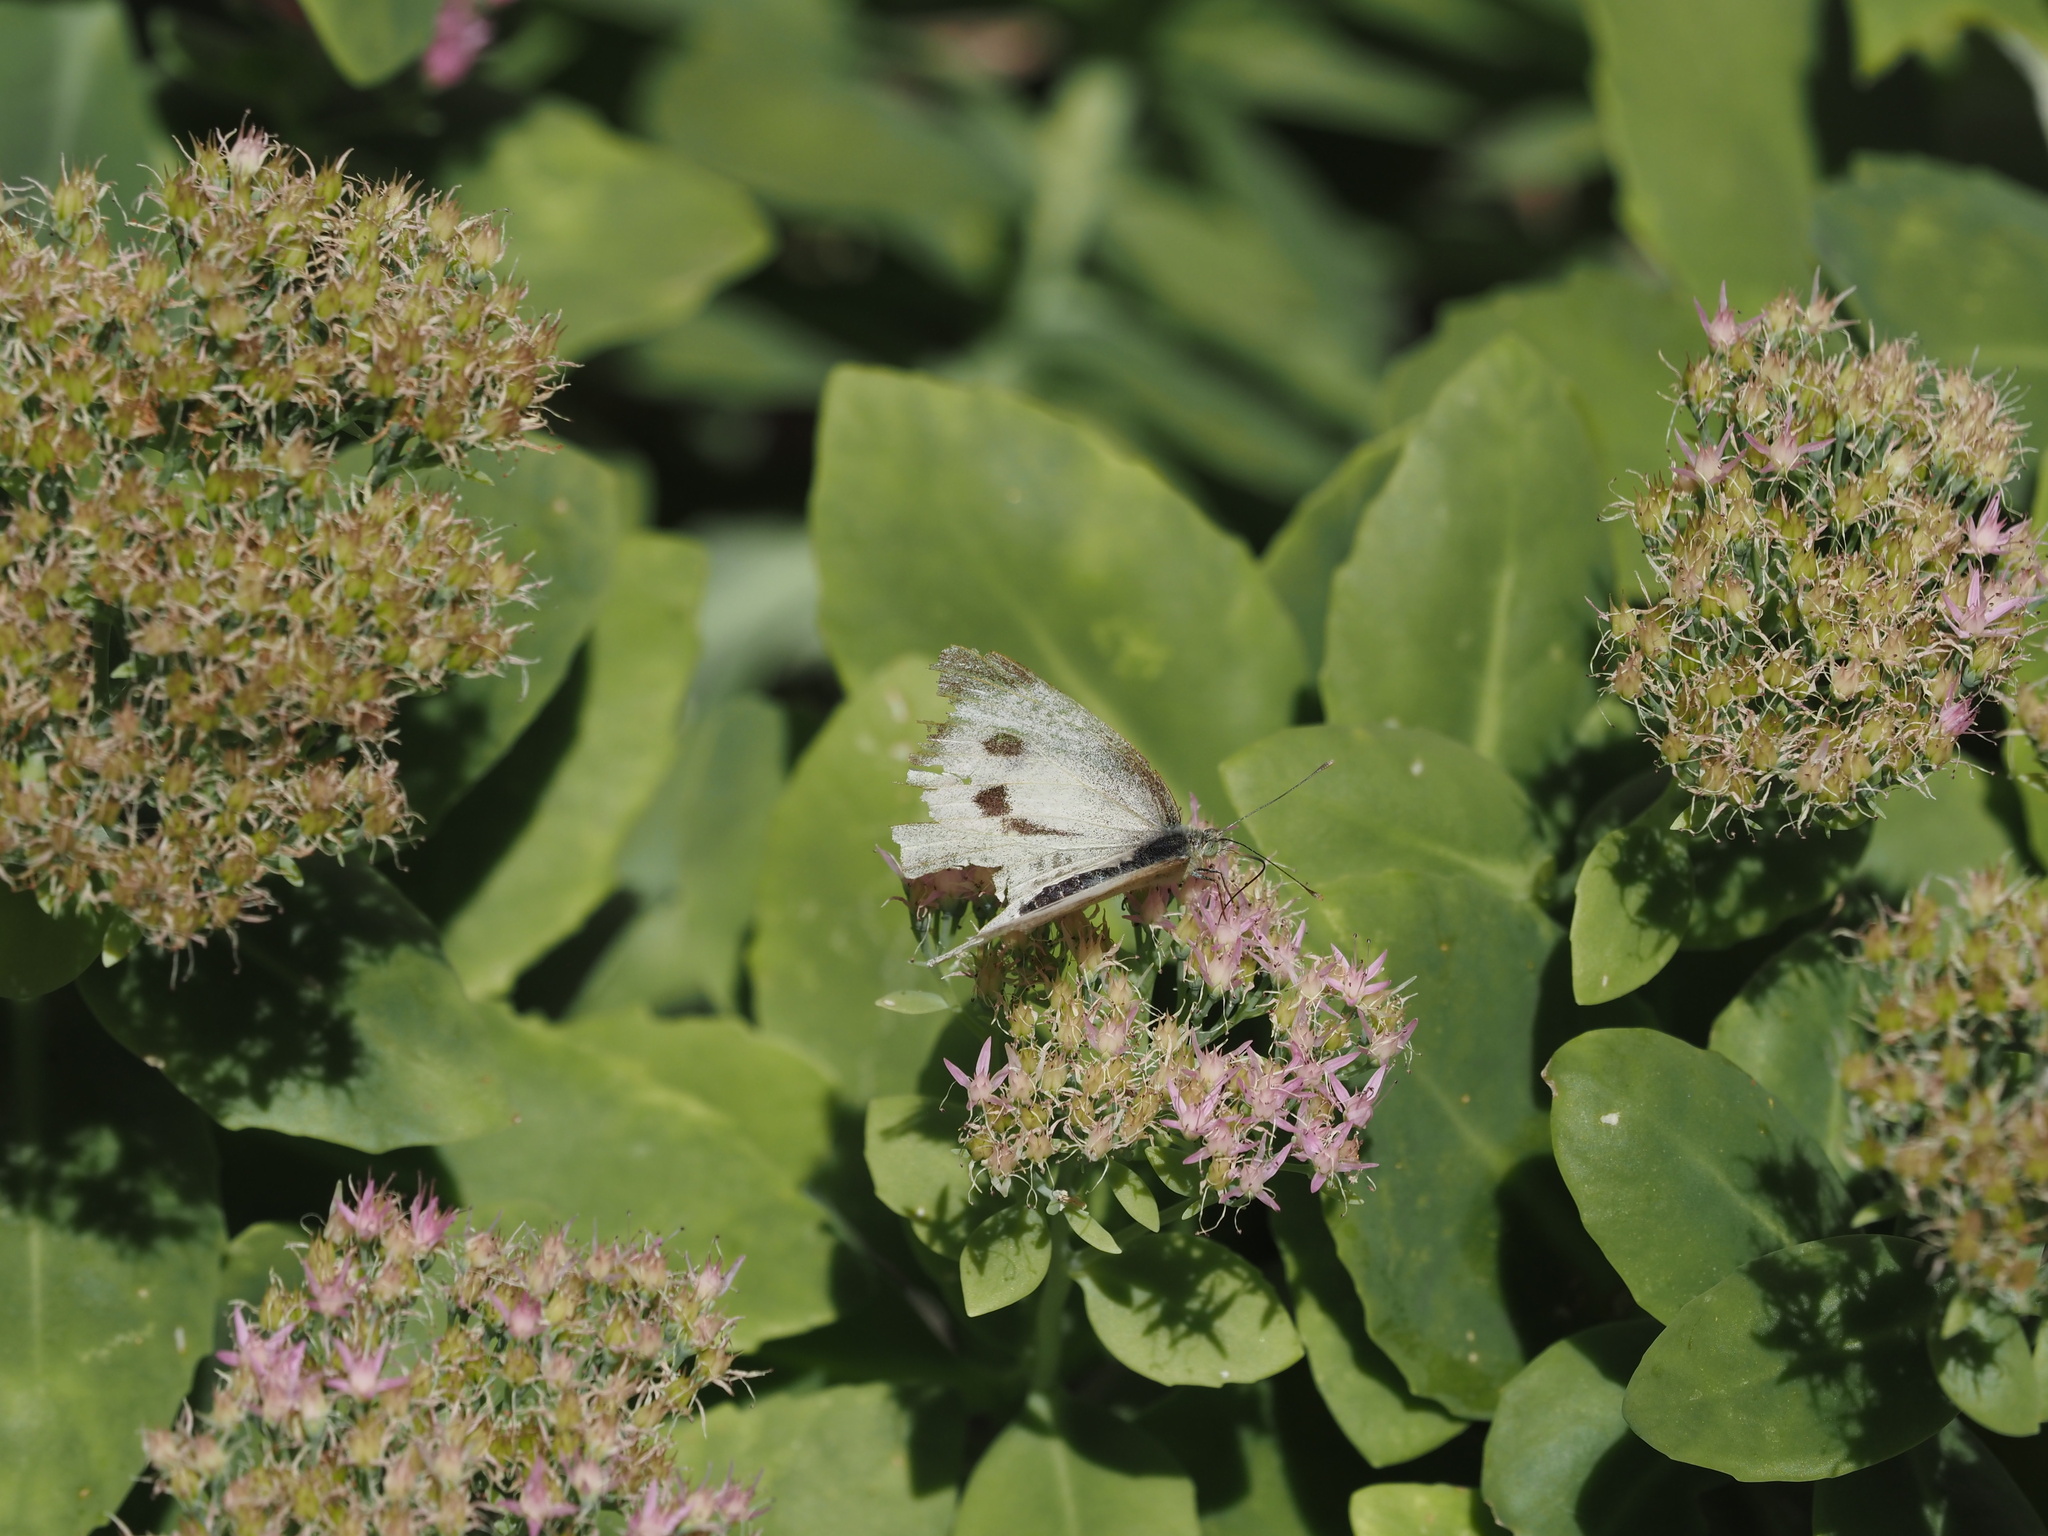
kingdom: Animalia
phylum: Arthropoda
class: Insecta
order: Lepidoptera
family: Pieridae
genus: Pieris
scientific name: Pieris brassicae
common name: Large white
